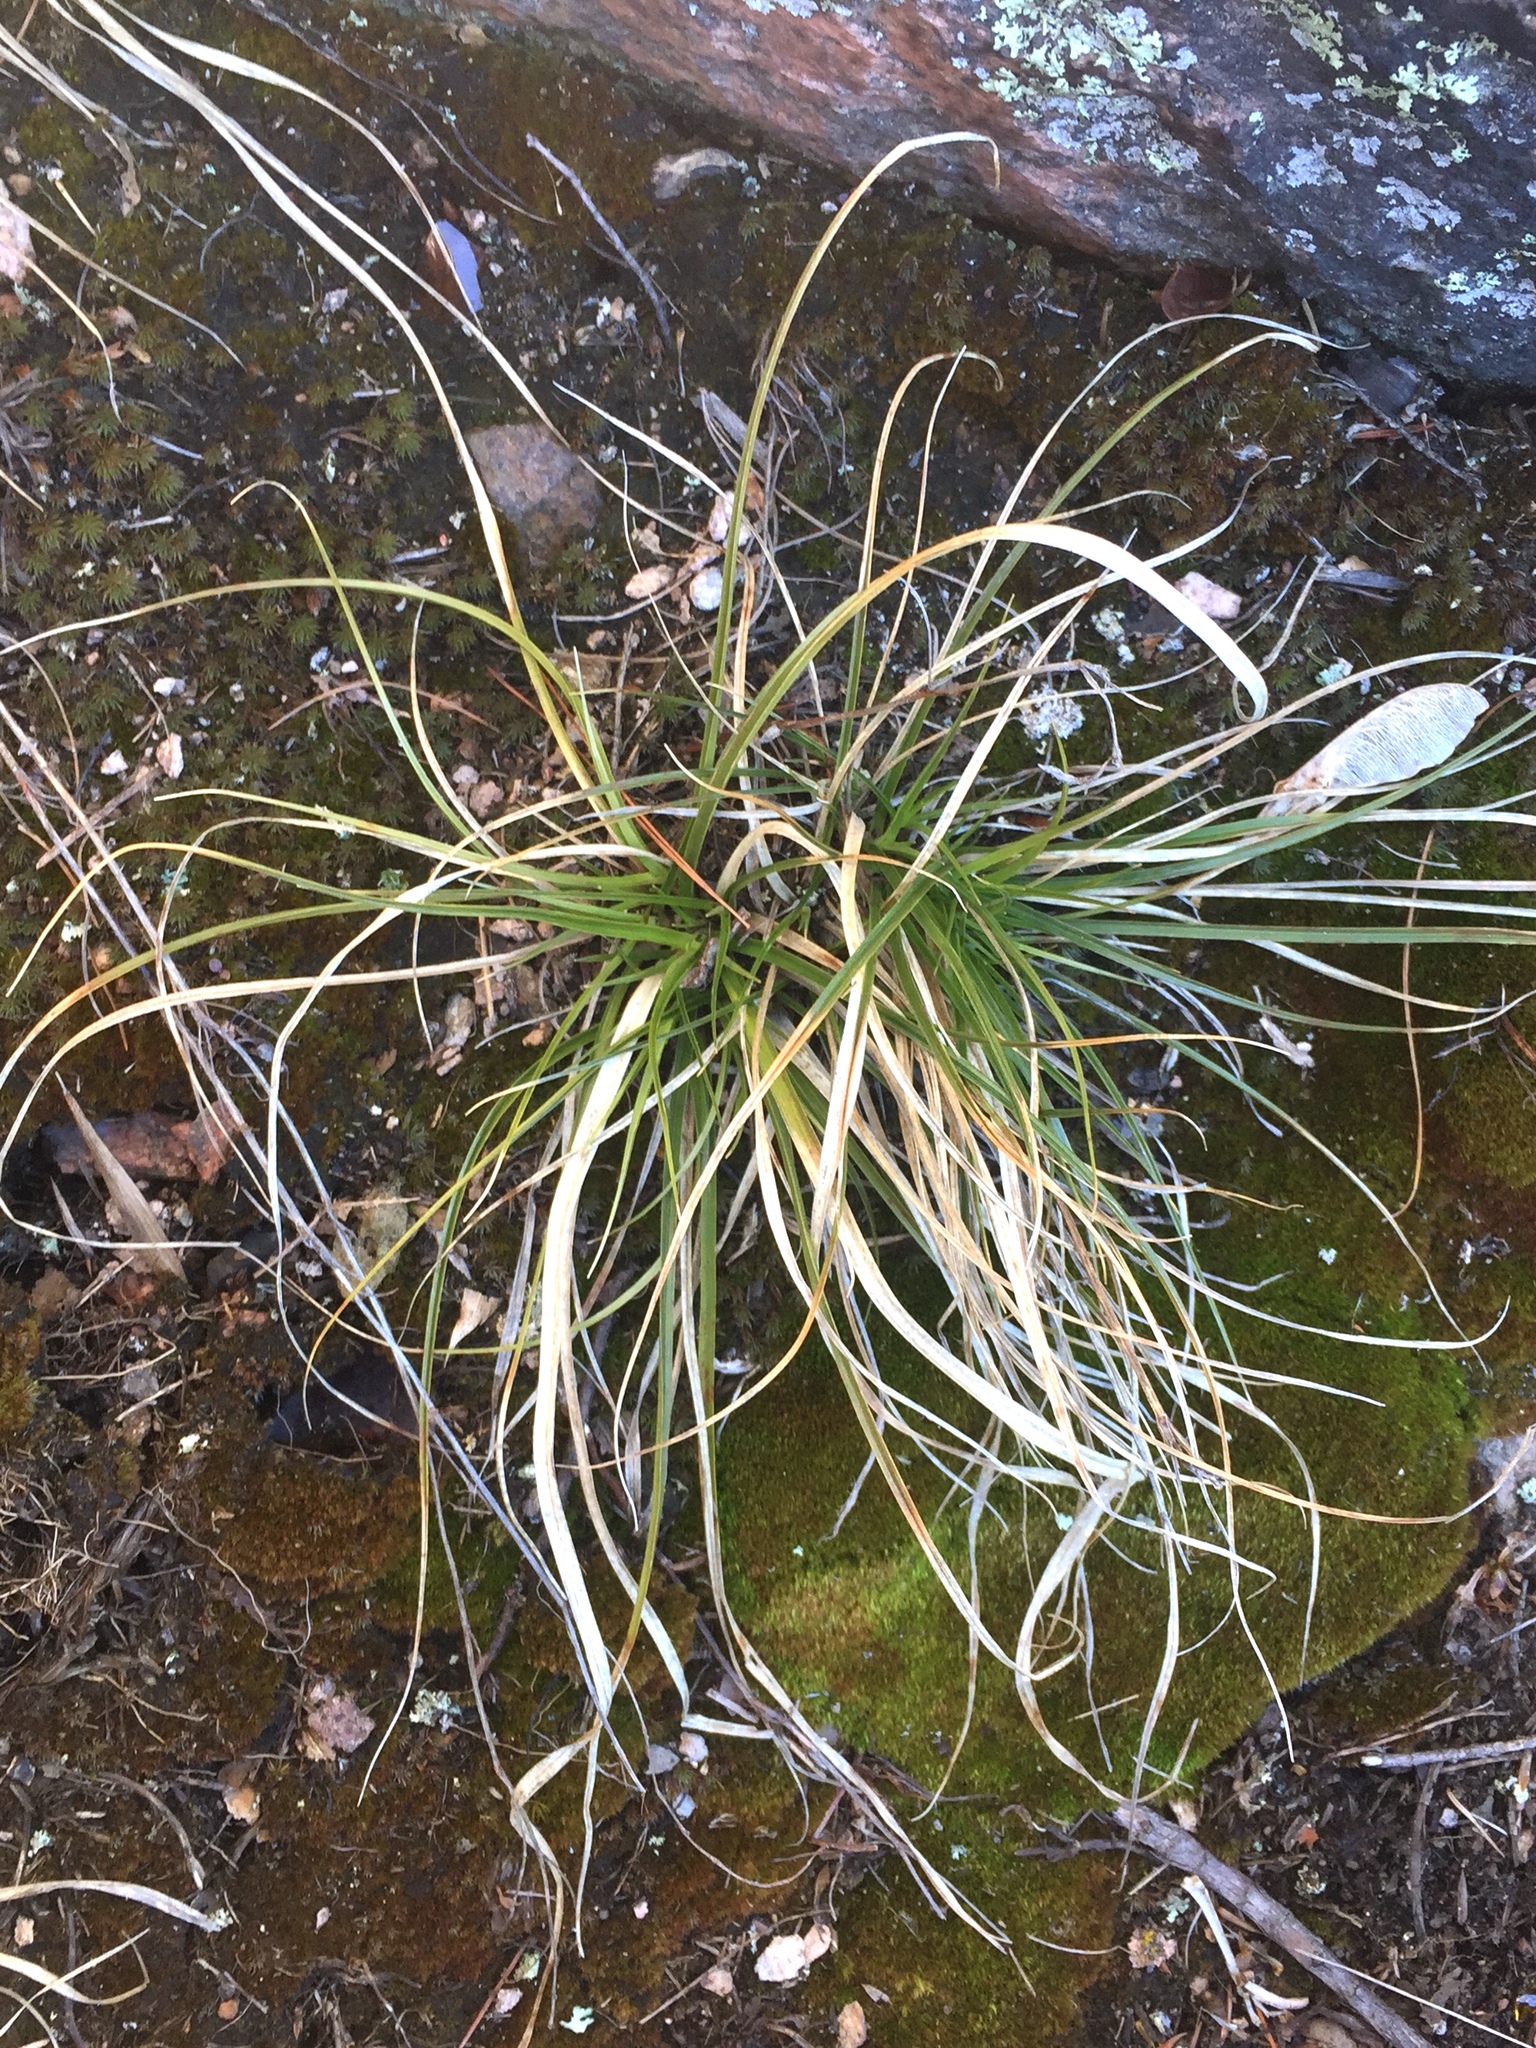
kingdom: Plantae
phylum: Tracheophyta
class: Liliopsida
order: Poales
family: Cyperaceae
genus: Carex
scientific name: Carex pedunculata
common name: Pedunculate sedge
